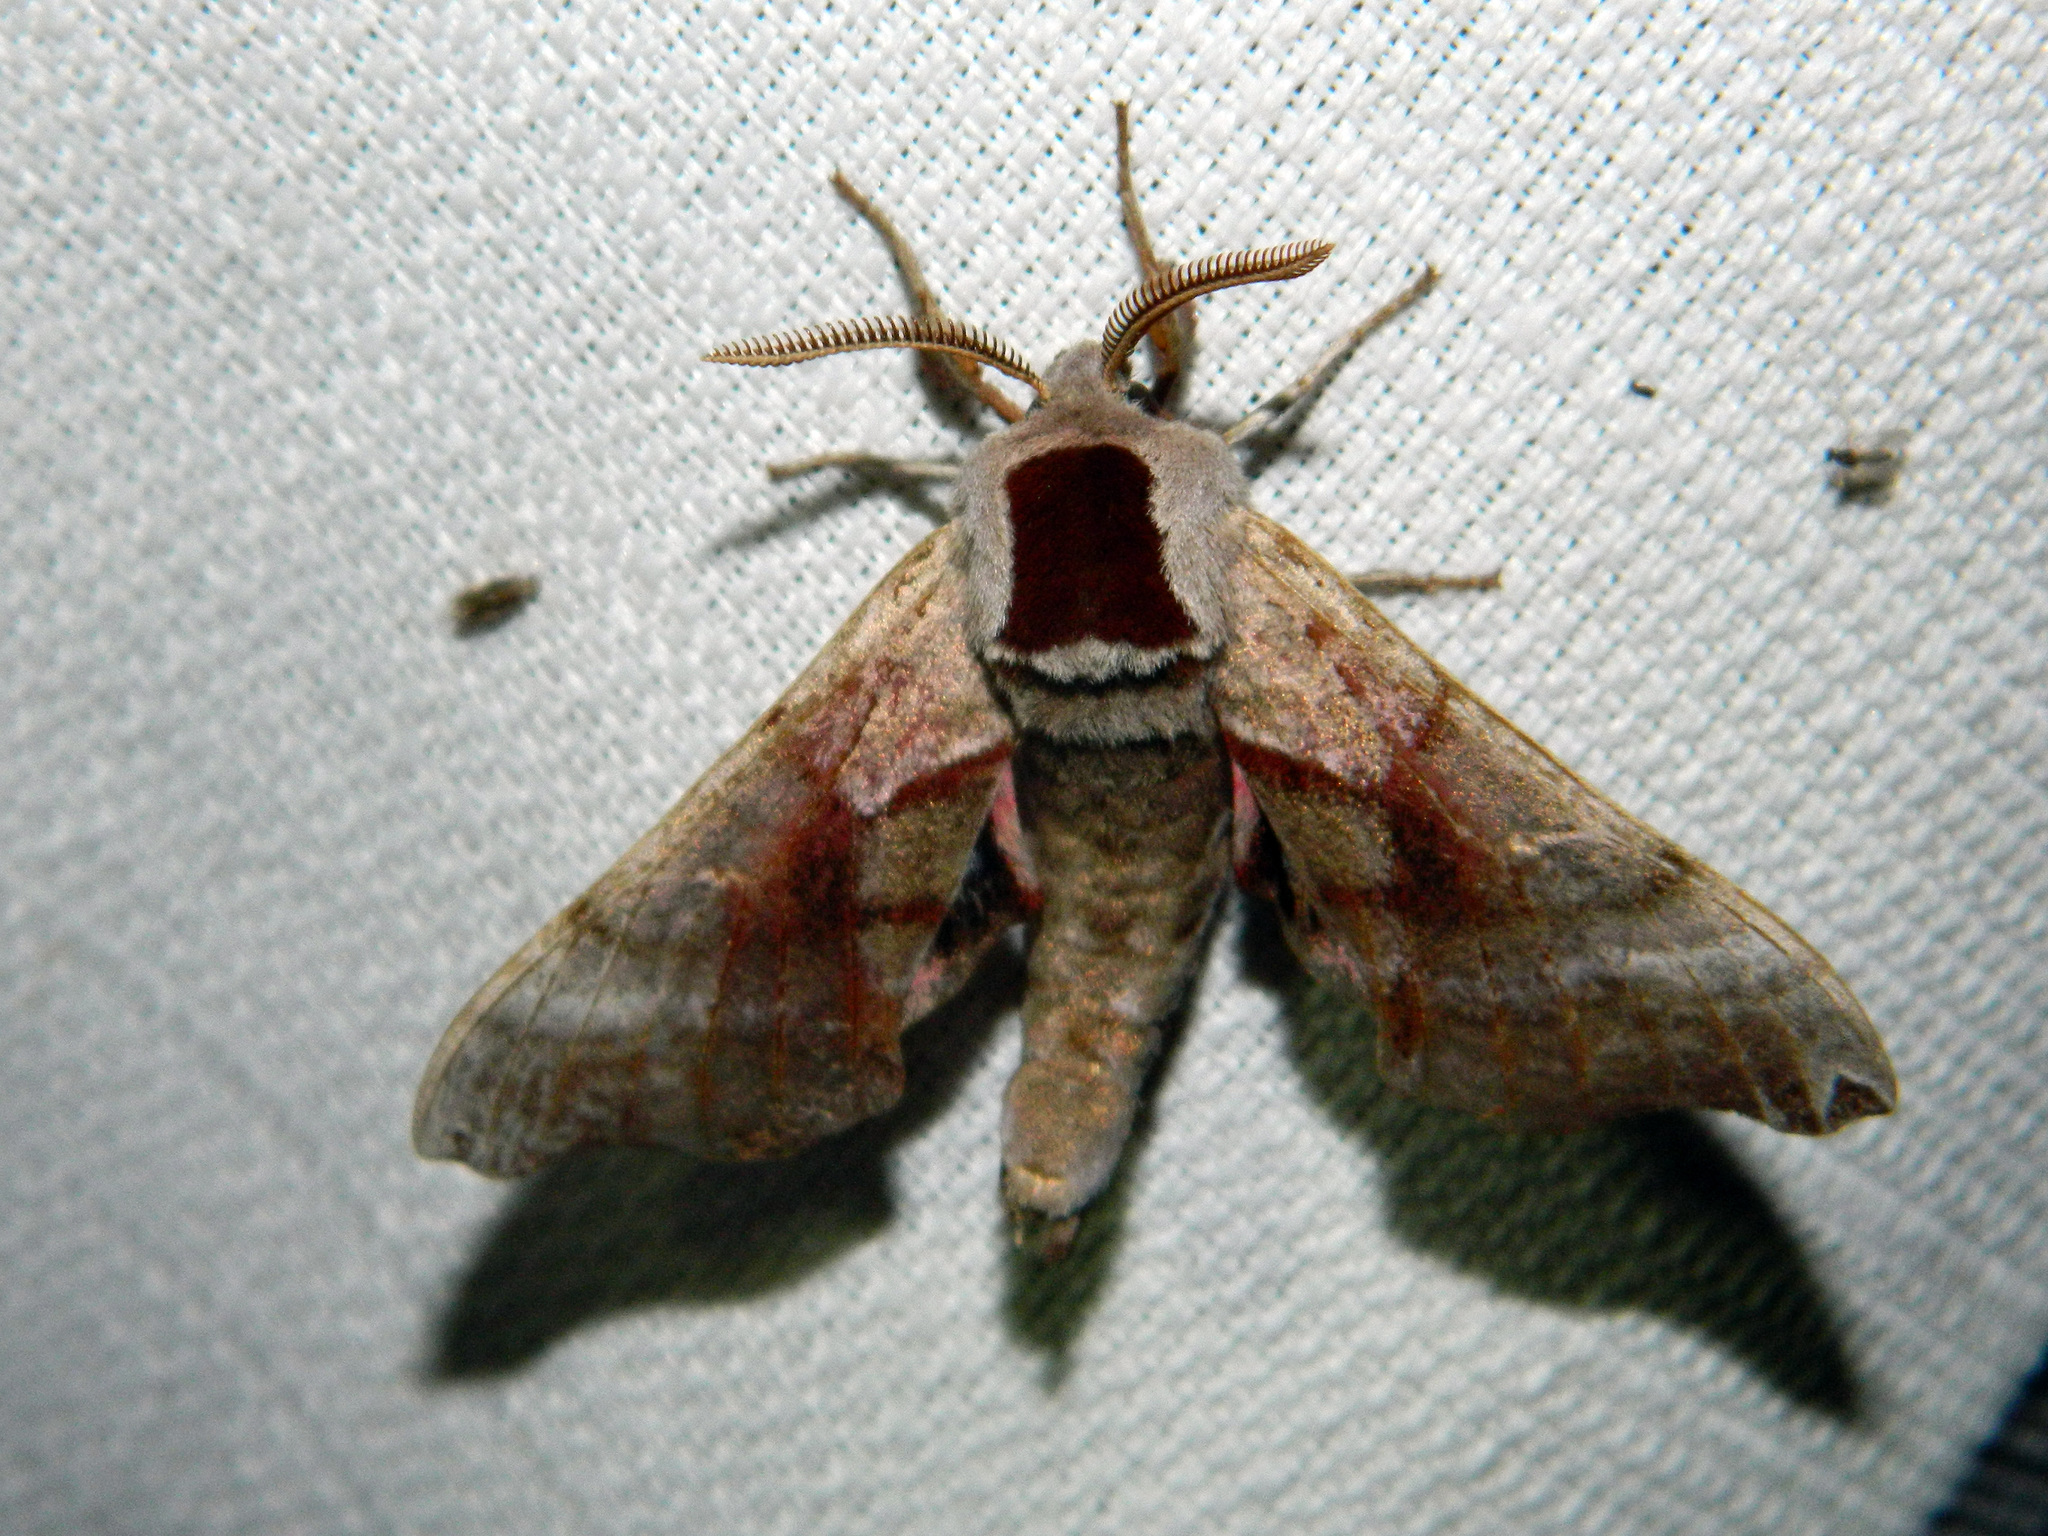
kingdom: Animalia
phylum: Arthropoda
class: Insecta
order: Lepidoptera
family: Sphingidae
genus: Smerinthus
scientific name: Smerinthus jamaicensis
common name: Twin spotted sphinx
